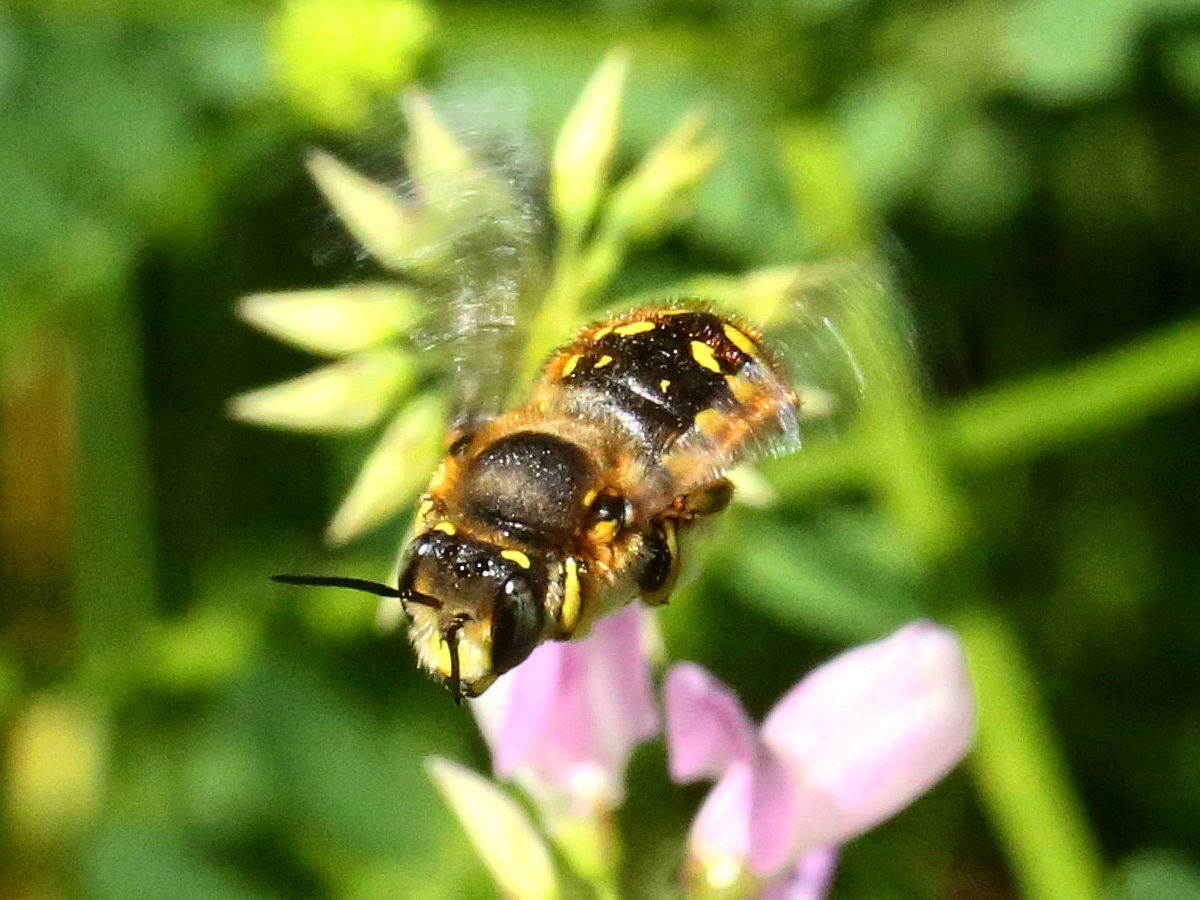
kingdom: Animalia
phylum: Arthropoda
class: Insecta
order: Hymenoptera
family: Megachilidae
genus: Anthidium
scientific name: Anthidium manicatum
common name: Wool carder bee
